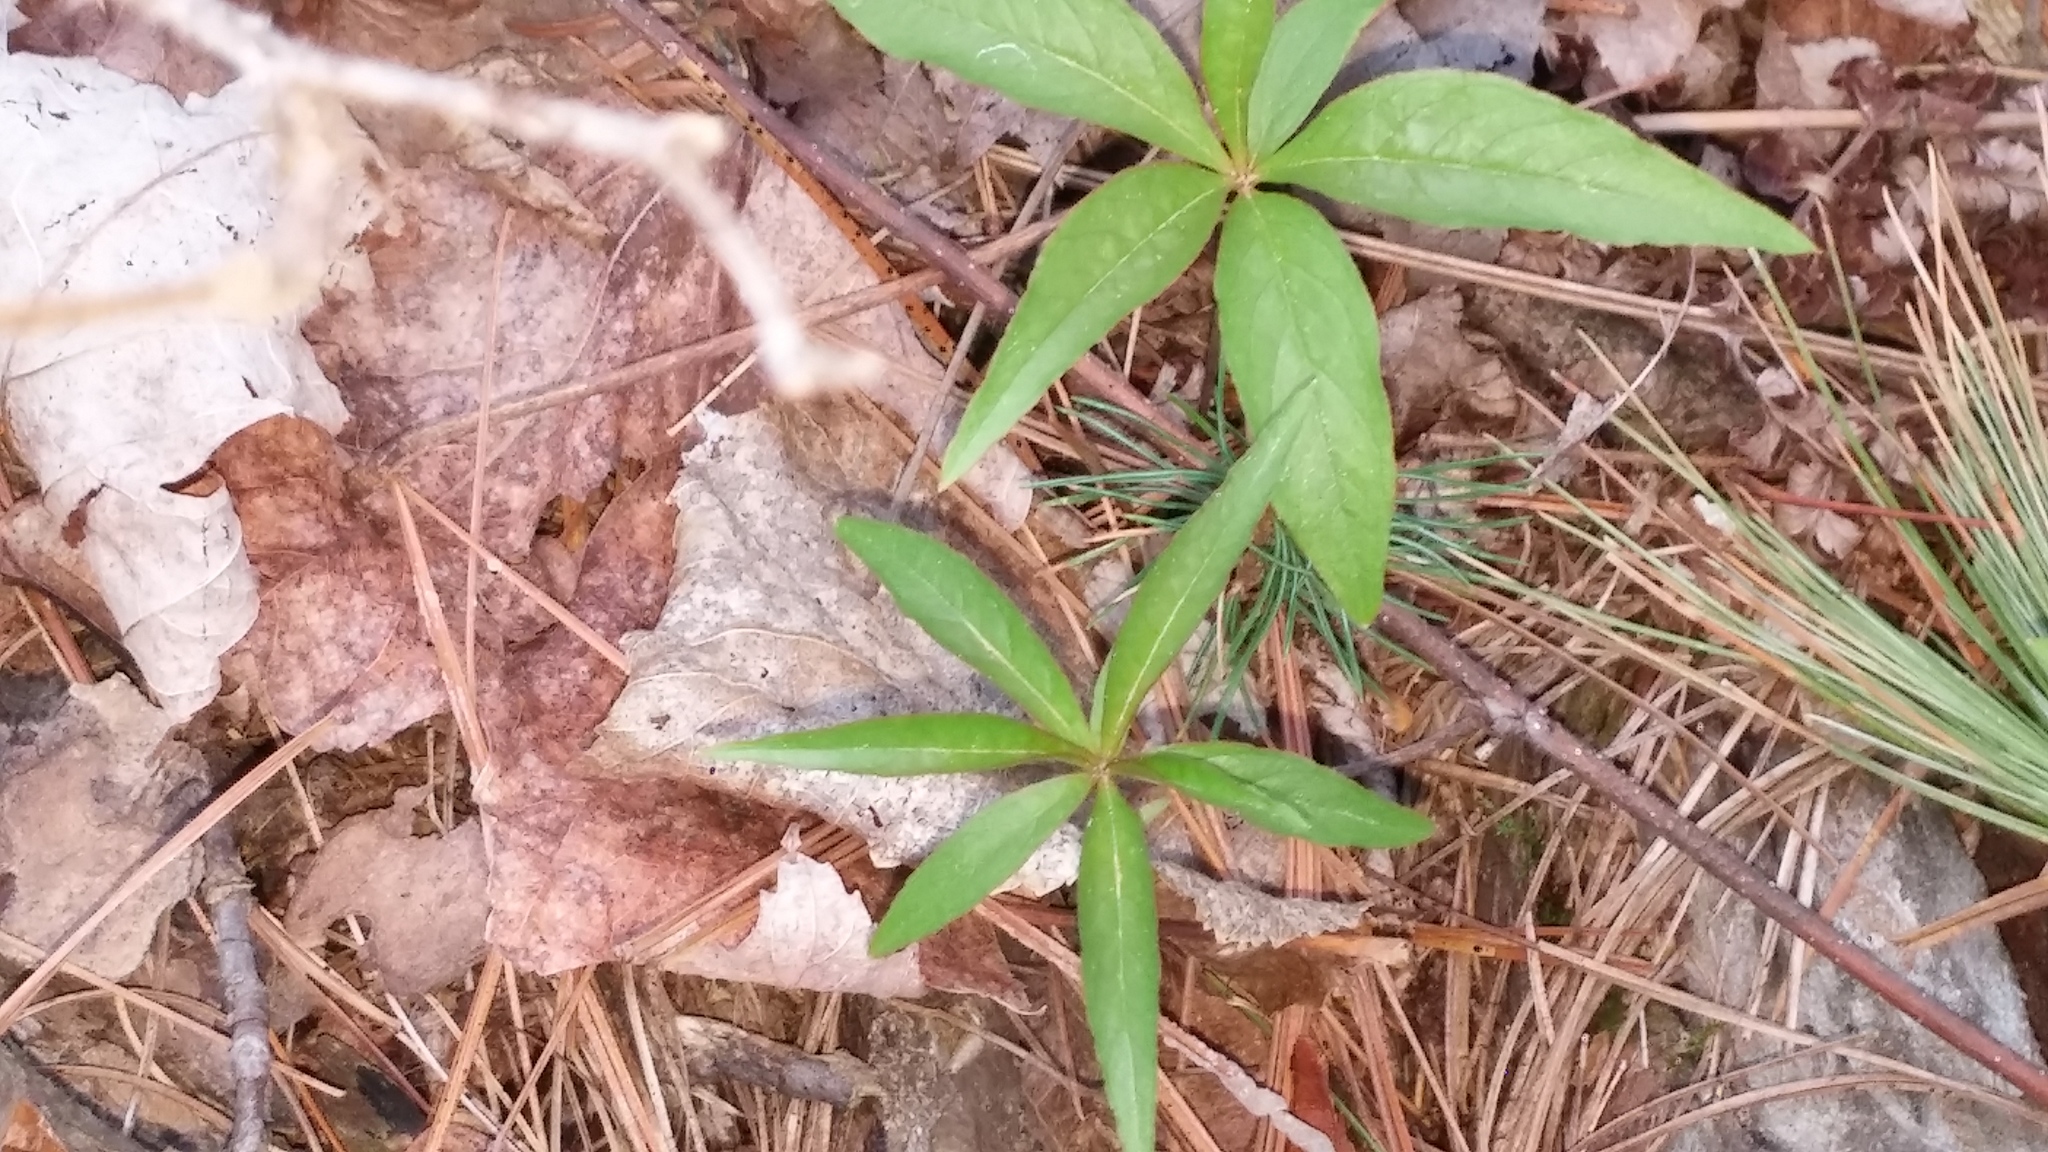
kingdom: Plantae
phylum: Tracheophyta
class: Magnoliopsida
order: Ericales
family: Primulaceae
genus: Lysimachia
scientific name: Lysimachia borealis
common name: American starflower
